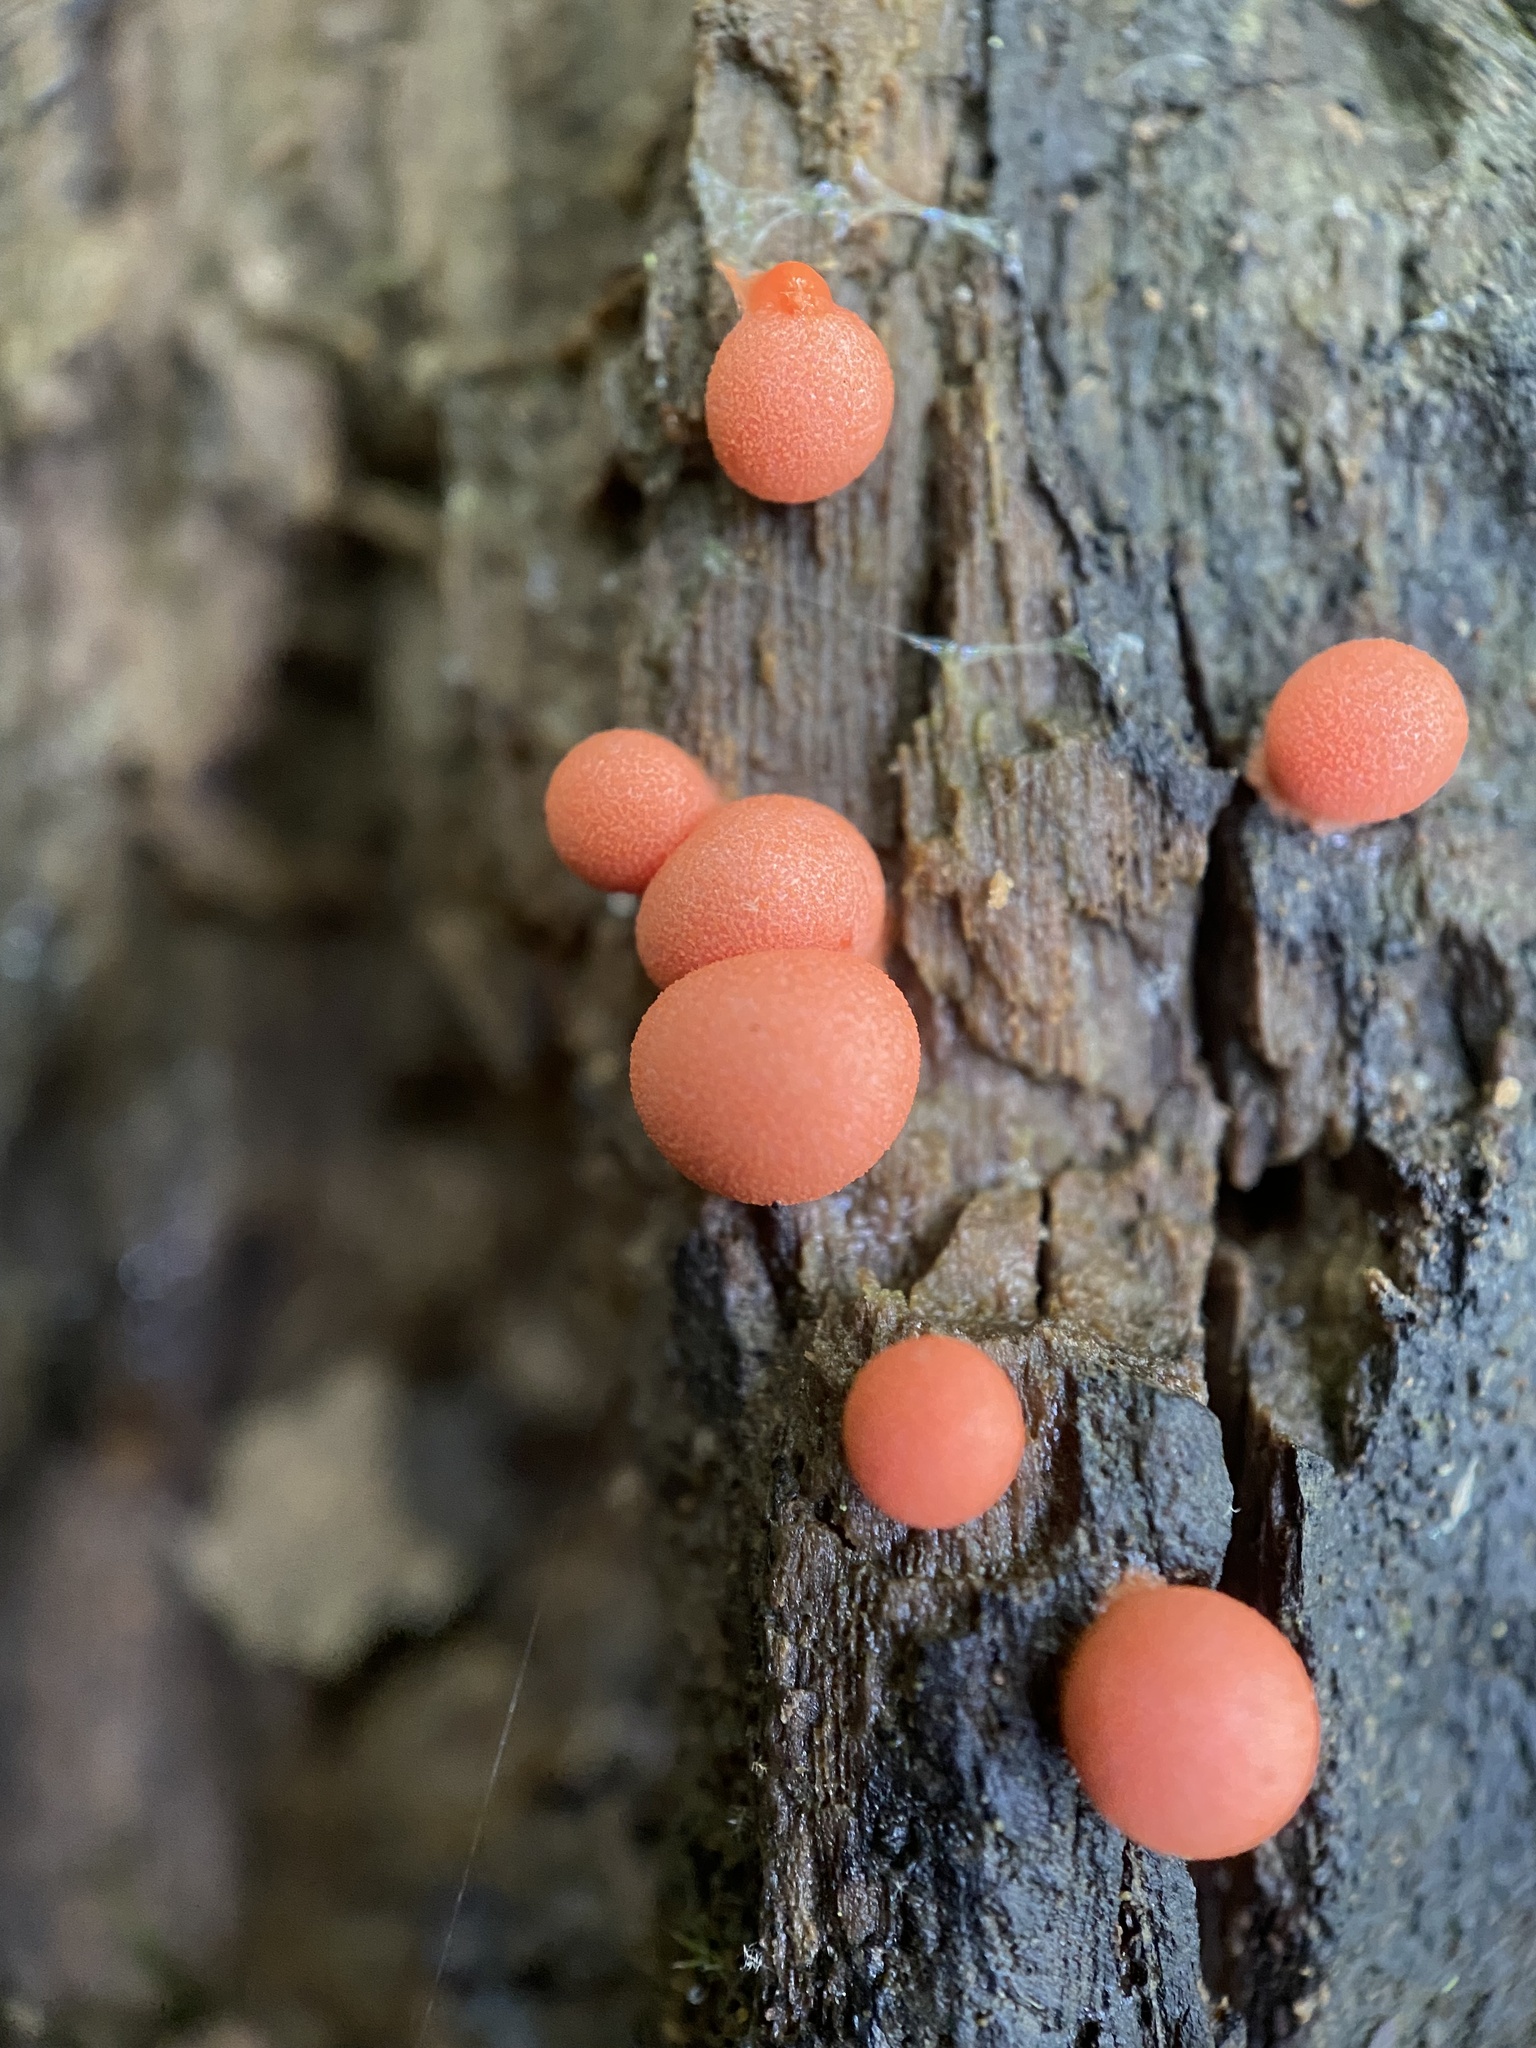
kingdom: Protozoa
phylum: Mycetozoa
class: Myxomycetes
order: Cribrariales
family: Tubiferaceae
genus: Lycogala
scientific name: Lycogala epidendrum
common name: Wolf's milk
